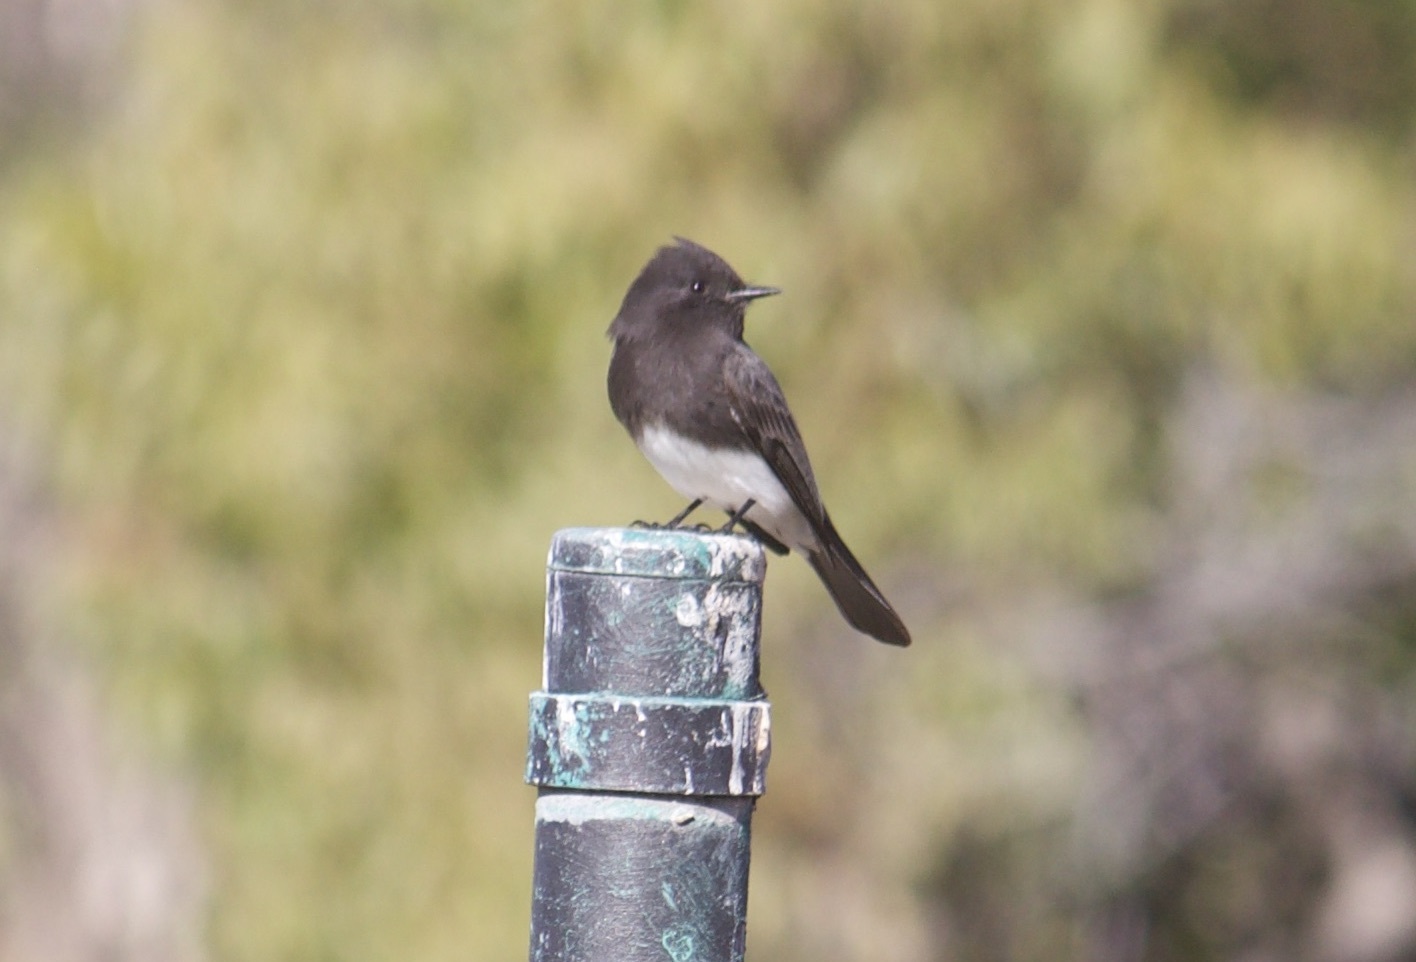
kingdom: Animalia
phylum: Chordata
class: Aves
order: Passeriformes
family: Tyrannidae
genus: Sayornis
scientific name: Sayornis nigricans
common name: Black phoebe
